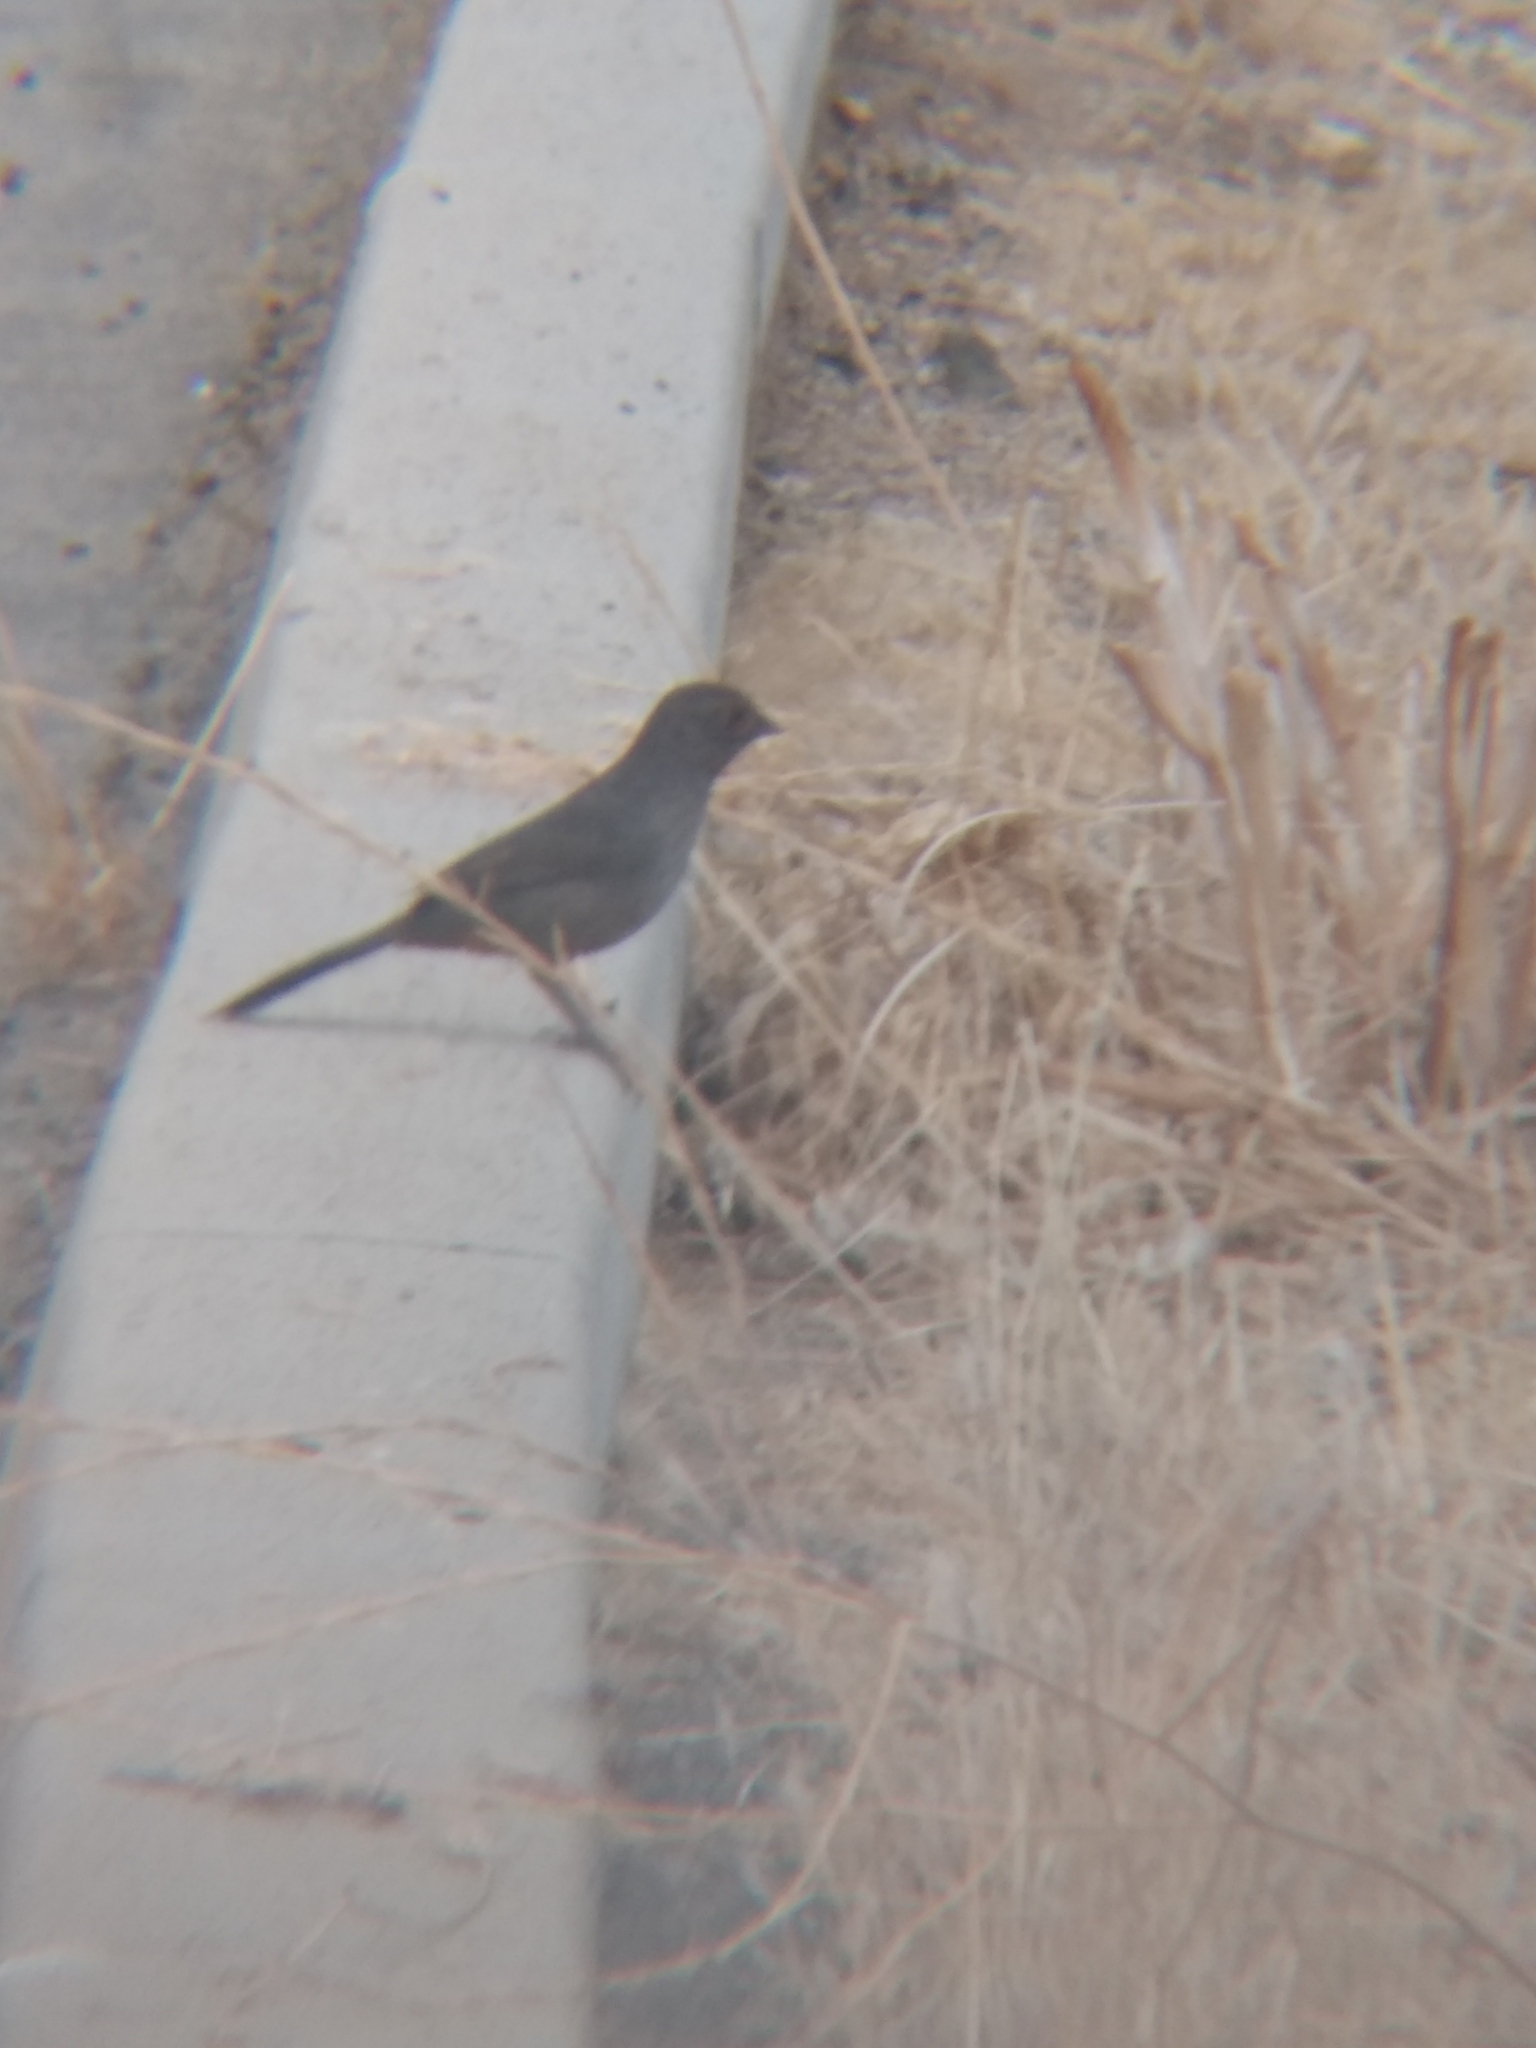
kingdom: Animalia
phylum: Chordata
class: Aves
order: Passeriformes
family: Passerellidae
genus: Melozone
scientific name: Melozone crissalis
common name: California towhee
